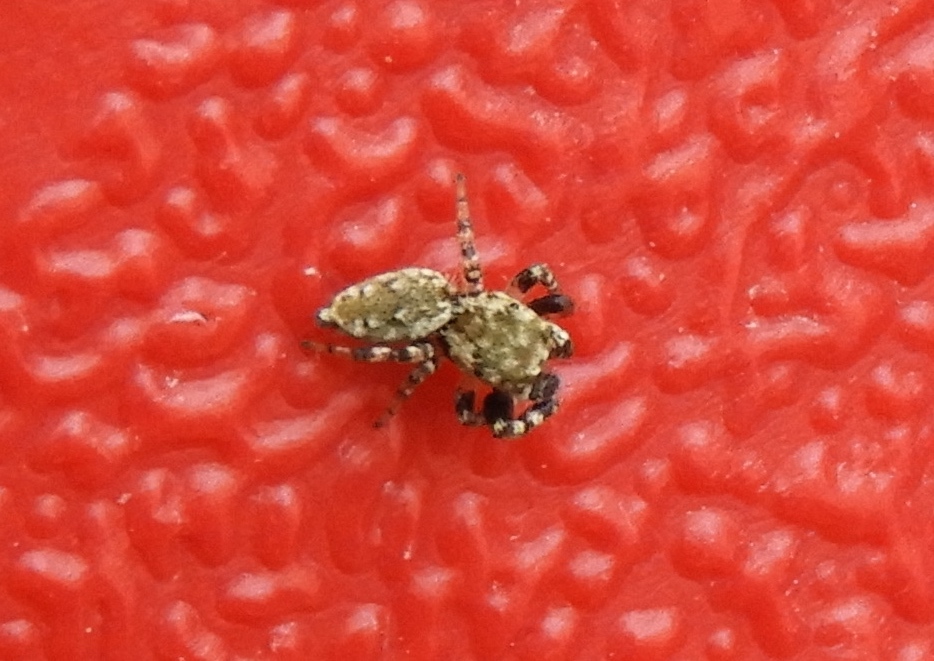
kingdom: Animalia
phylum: Arthropoda
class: Arachnida
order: Araneae
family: Salticidae
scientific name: Salticidae
